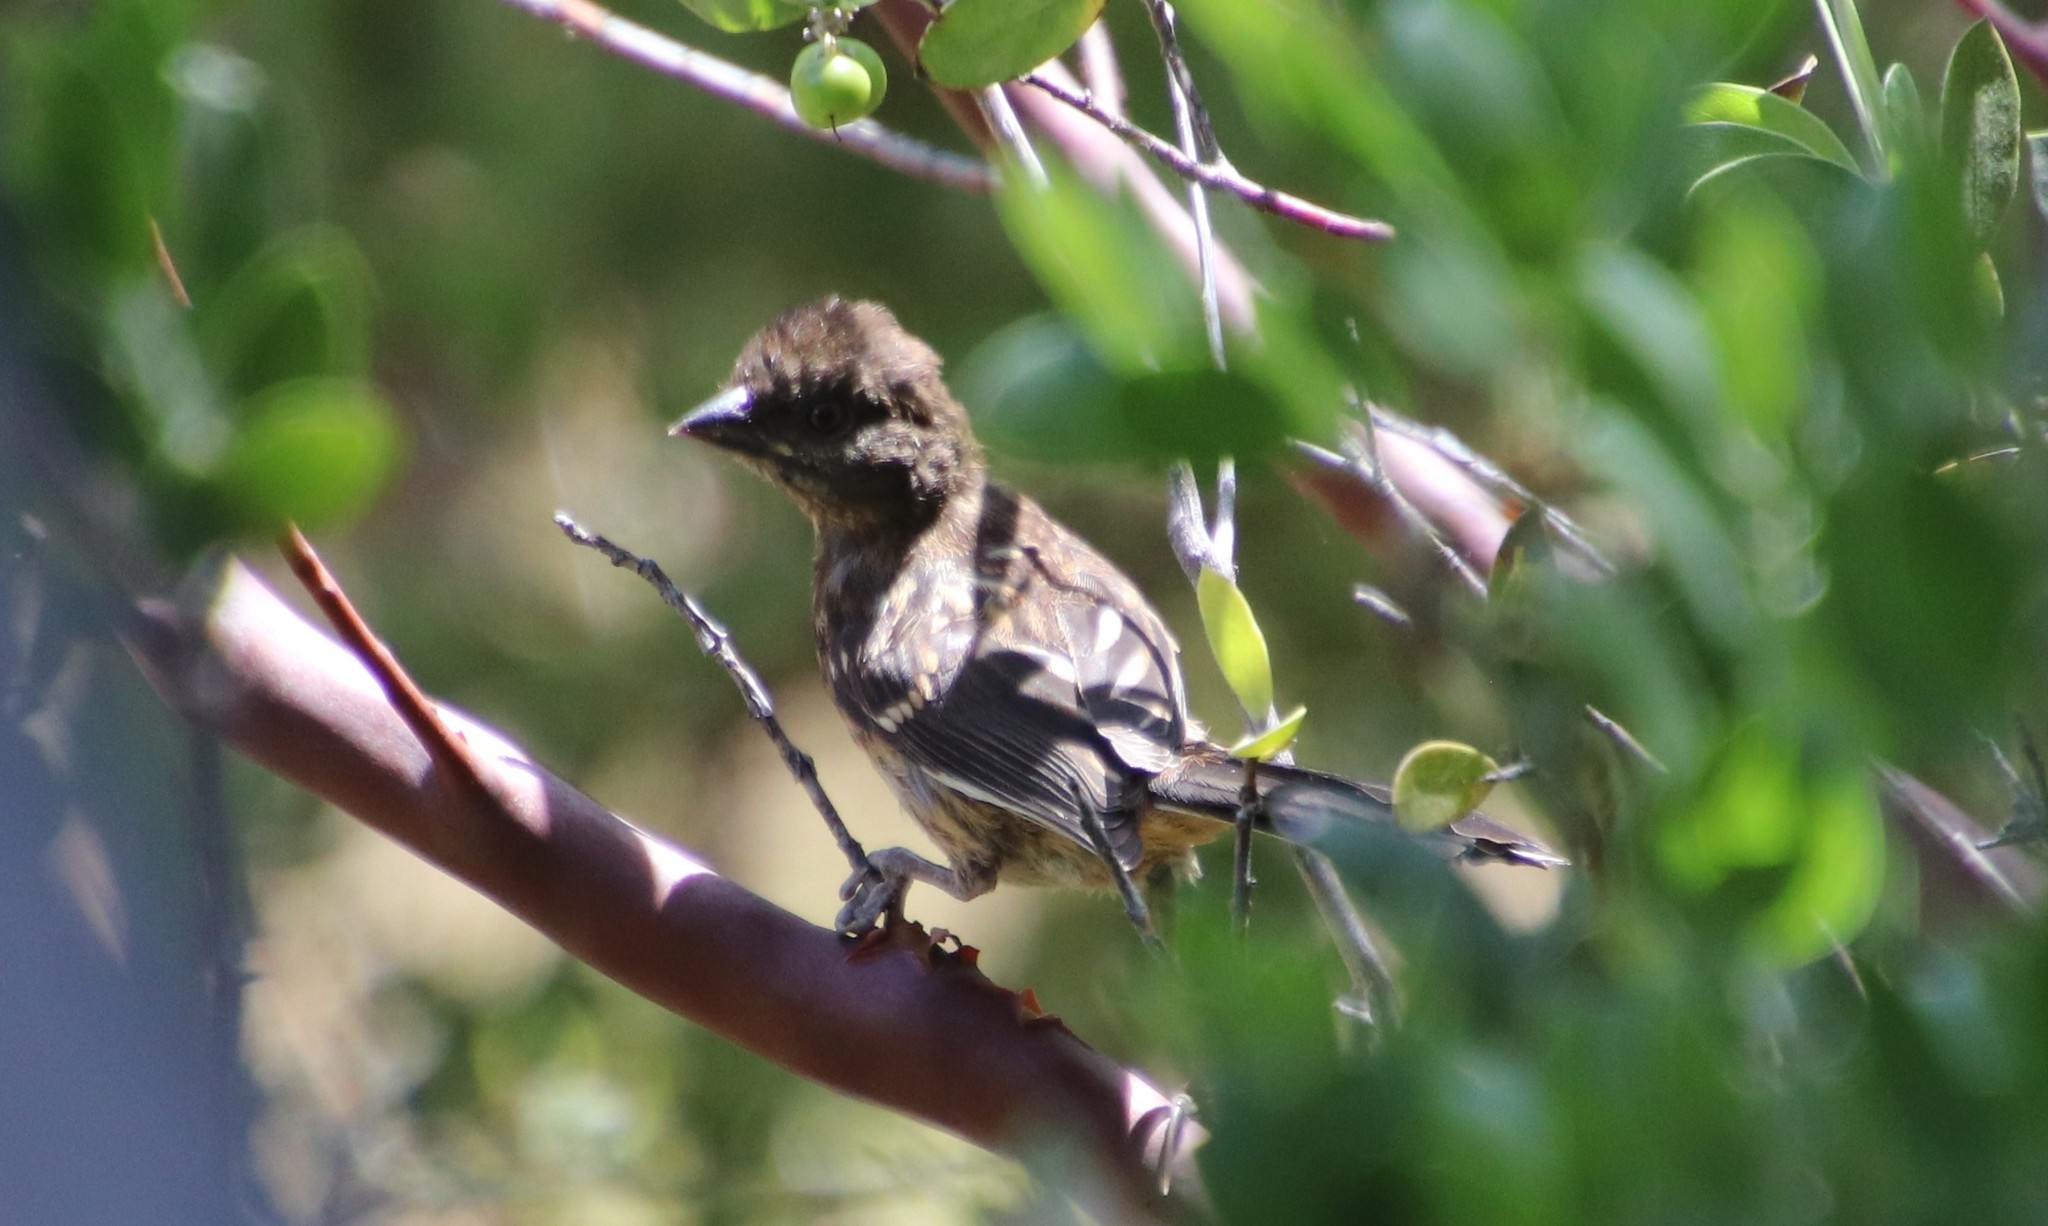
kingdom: Animalia
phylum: Chordata
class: Aves
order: Passeriformes
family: Passerellidae
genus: Pipilo
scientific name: Pipilo maculatus
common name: Spotted towhee
